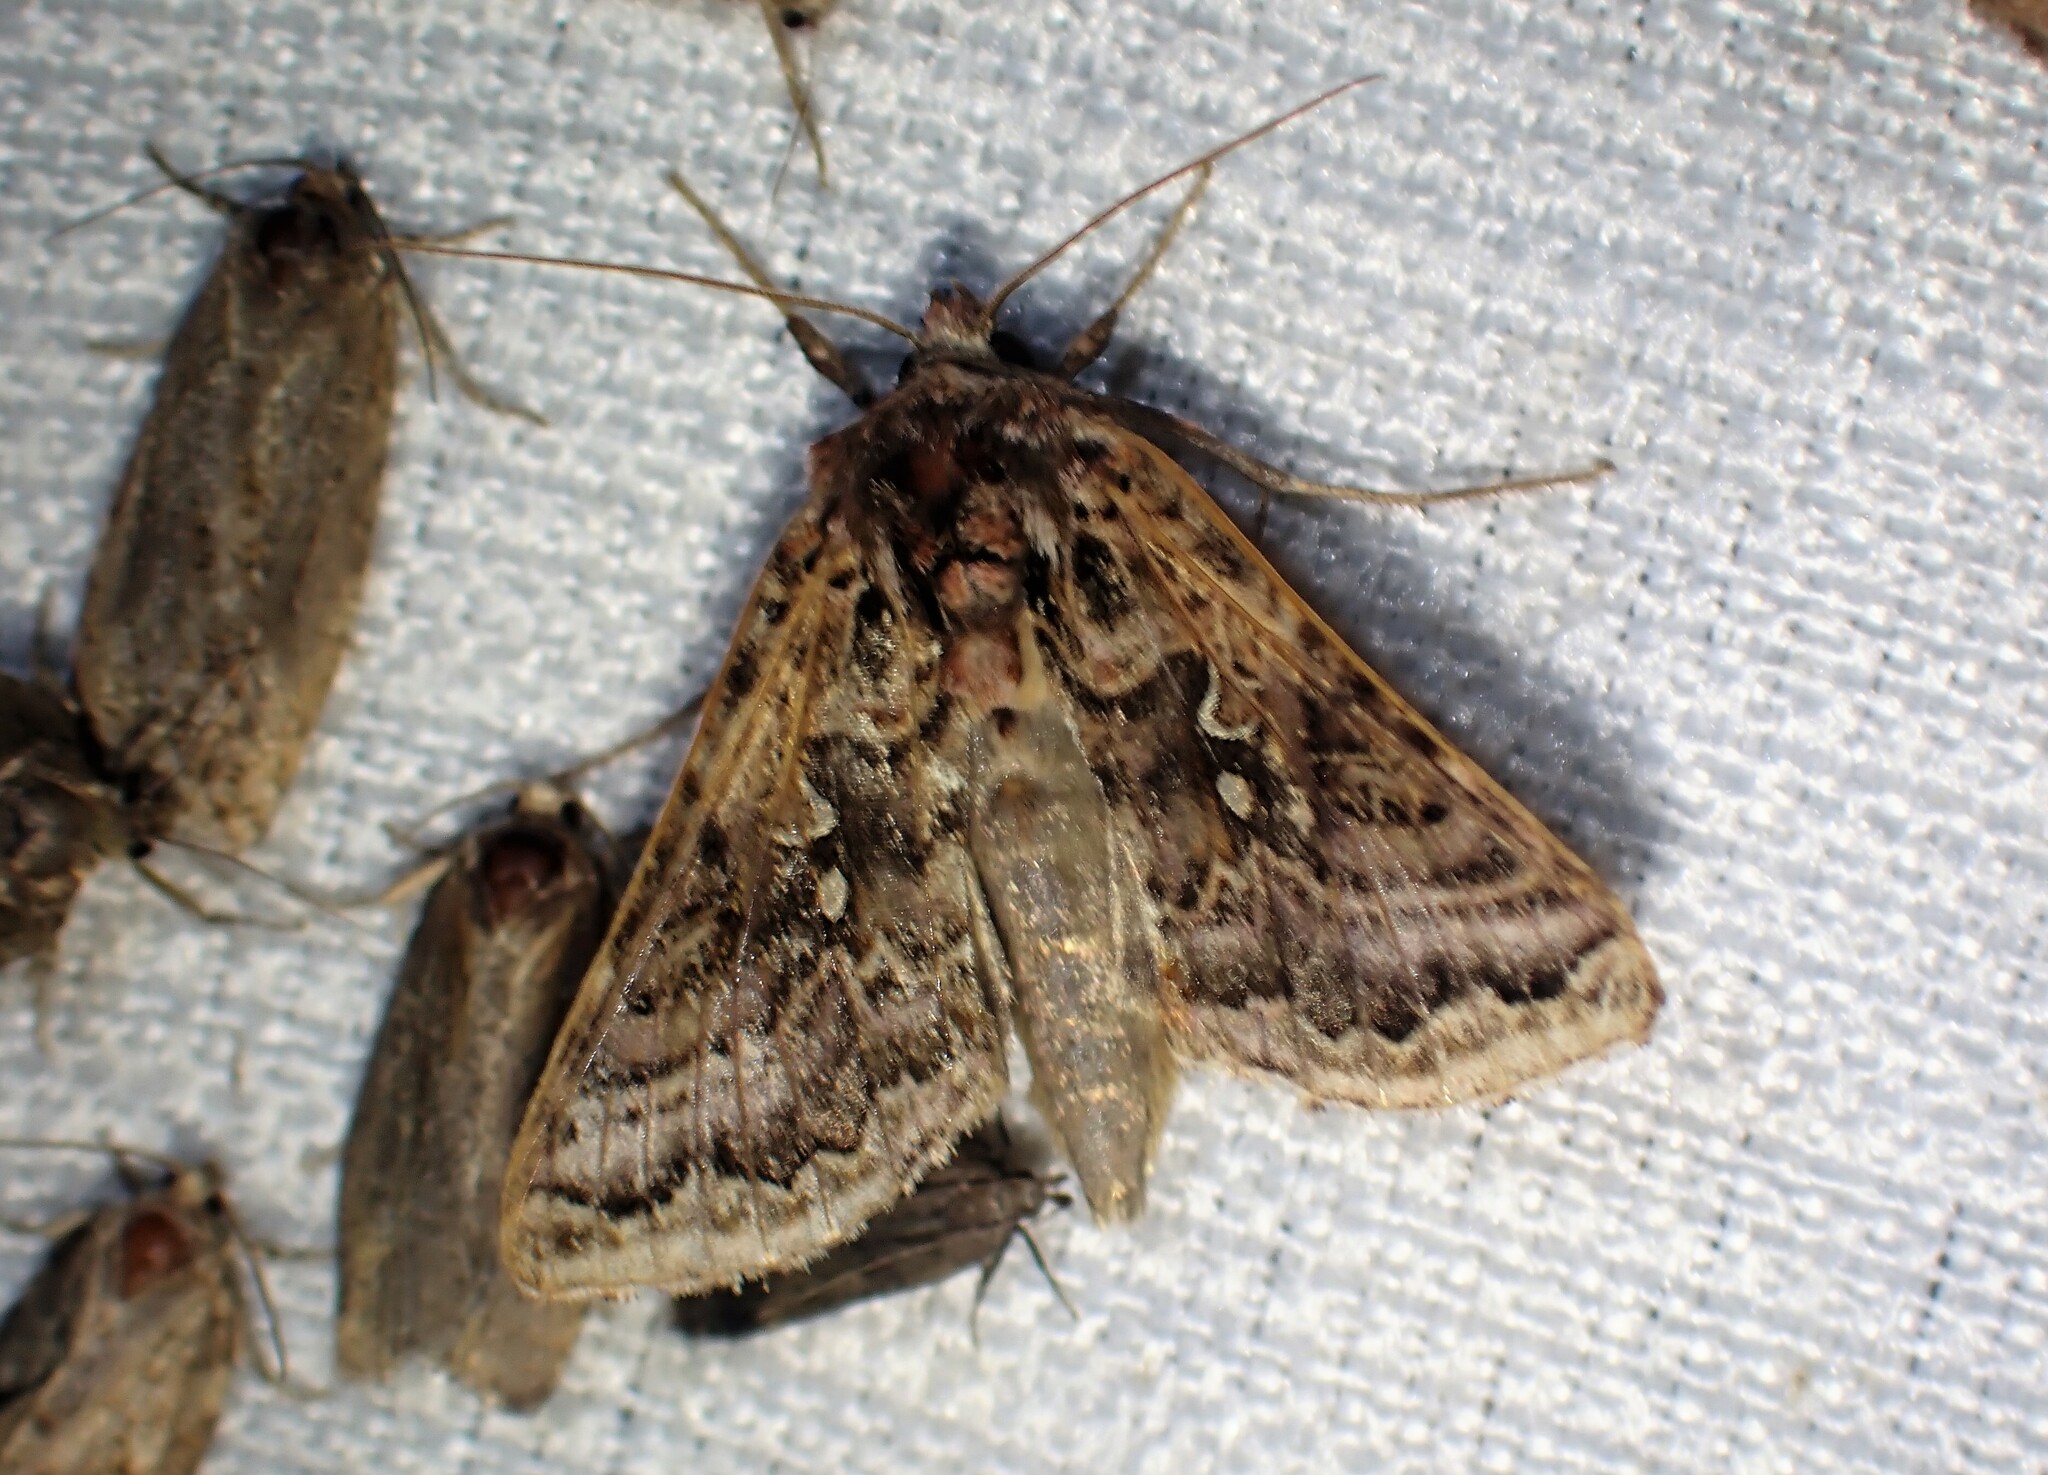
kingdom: Animalia
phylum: Arthropoda
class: Insecta
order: Lepidoptera
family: Noctuidae
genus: Autographa
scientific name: Autographa mappa
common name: Wavy chestnut y moth
